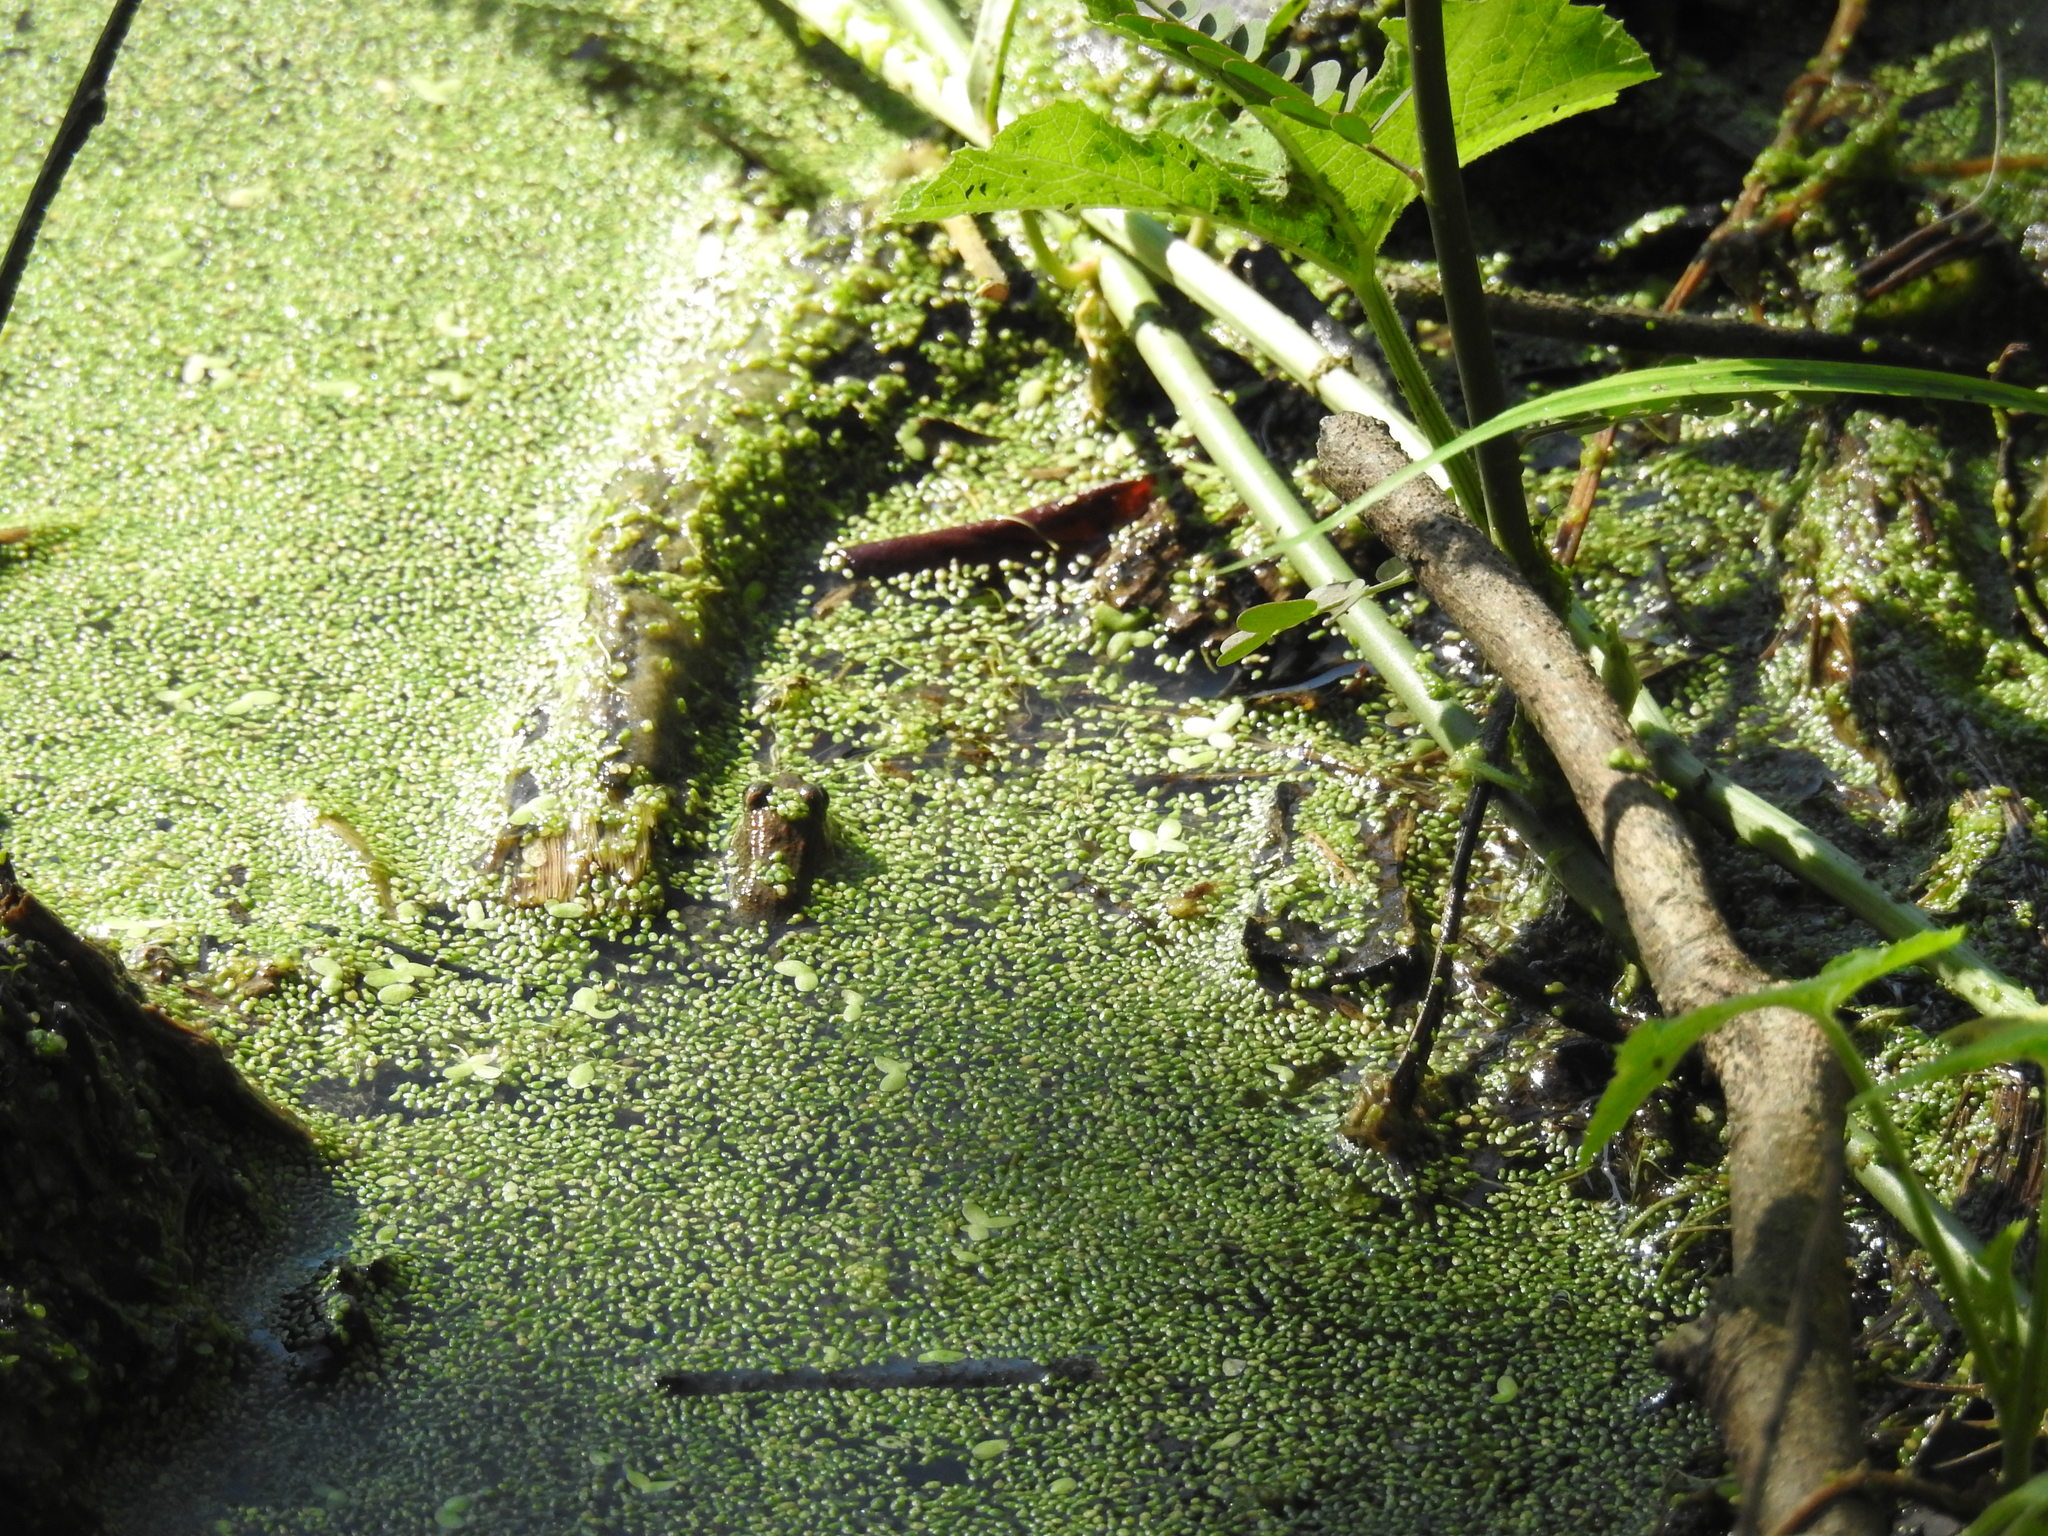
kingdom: Animalia
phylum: Chordata
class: Amphibia
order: Anura
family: Leptodactylidae
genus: Leptodactylus
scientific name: Leptodactylus melanonotus
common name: Fringe-toed foamfrog
